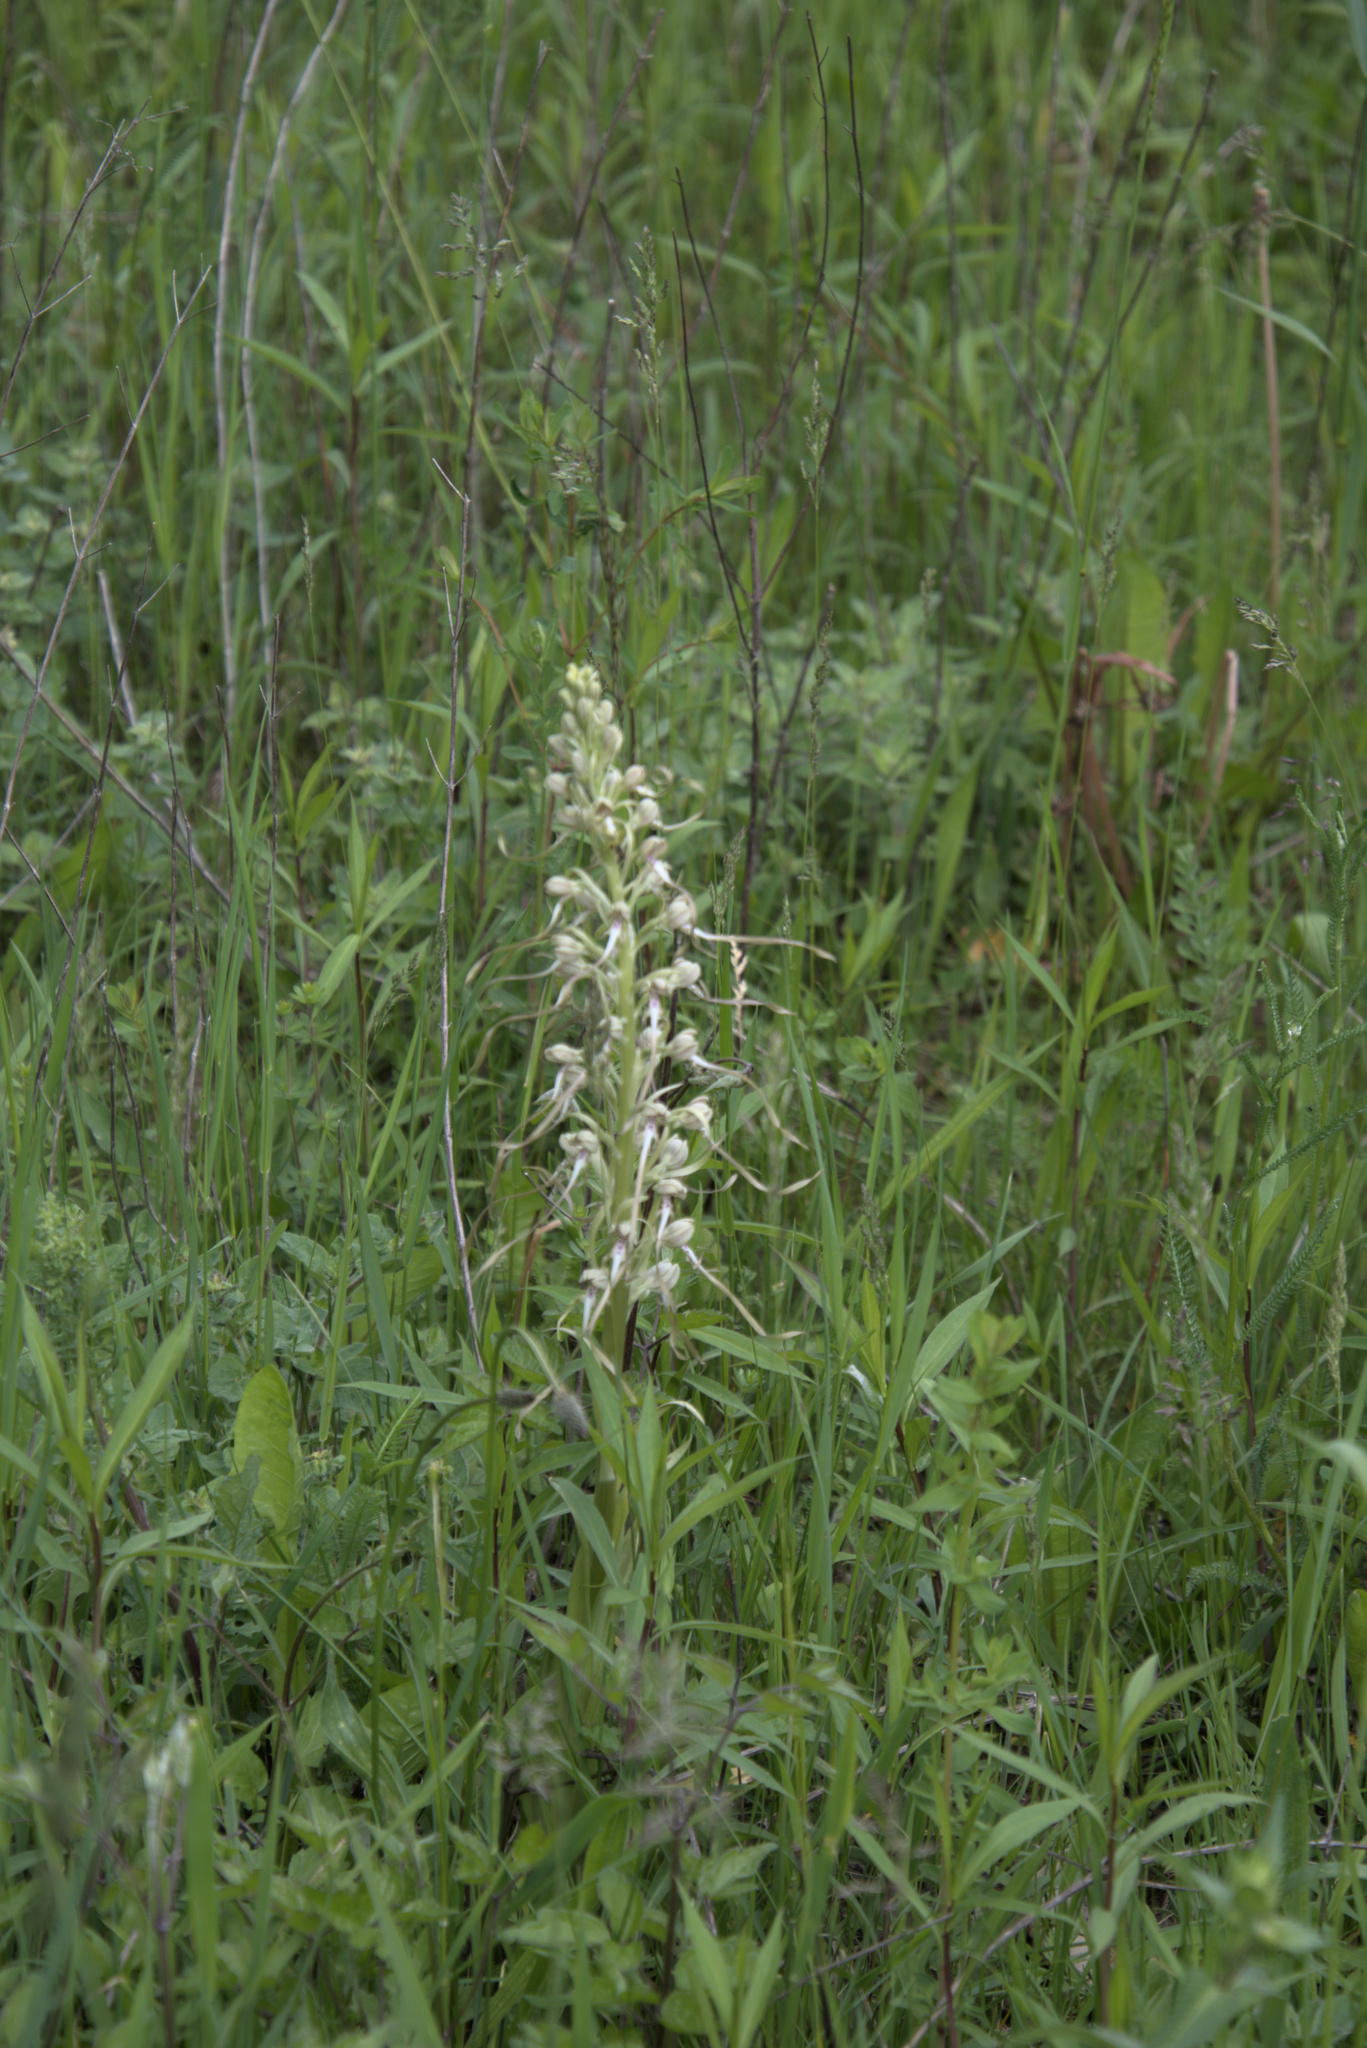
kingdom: Plantae
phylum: Tracheophyta
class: Liliopsida
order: Asparagales
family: Orchidaceae
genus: Himantoglossum
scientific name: Himantoglossum hircinum
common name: Lizard orchid
